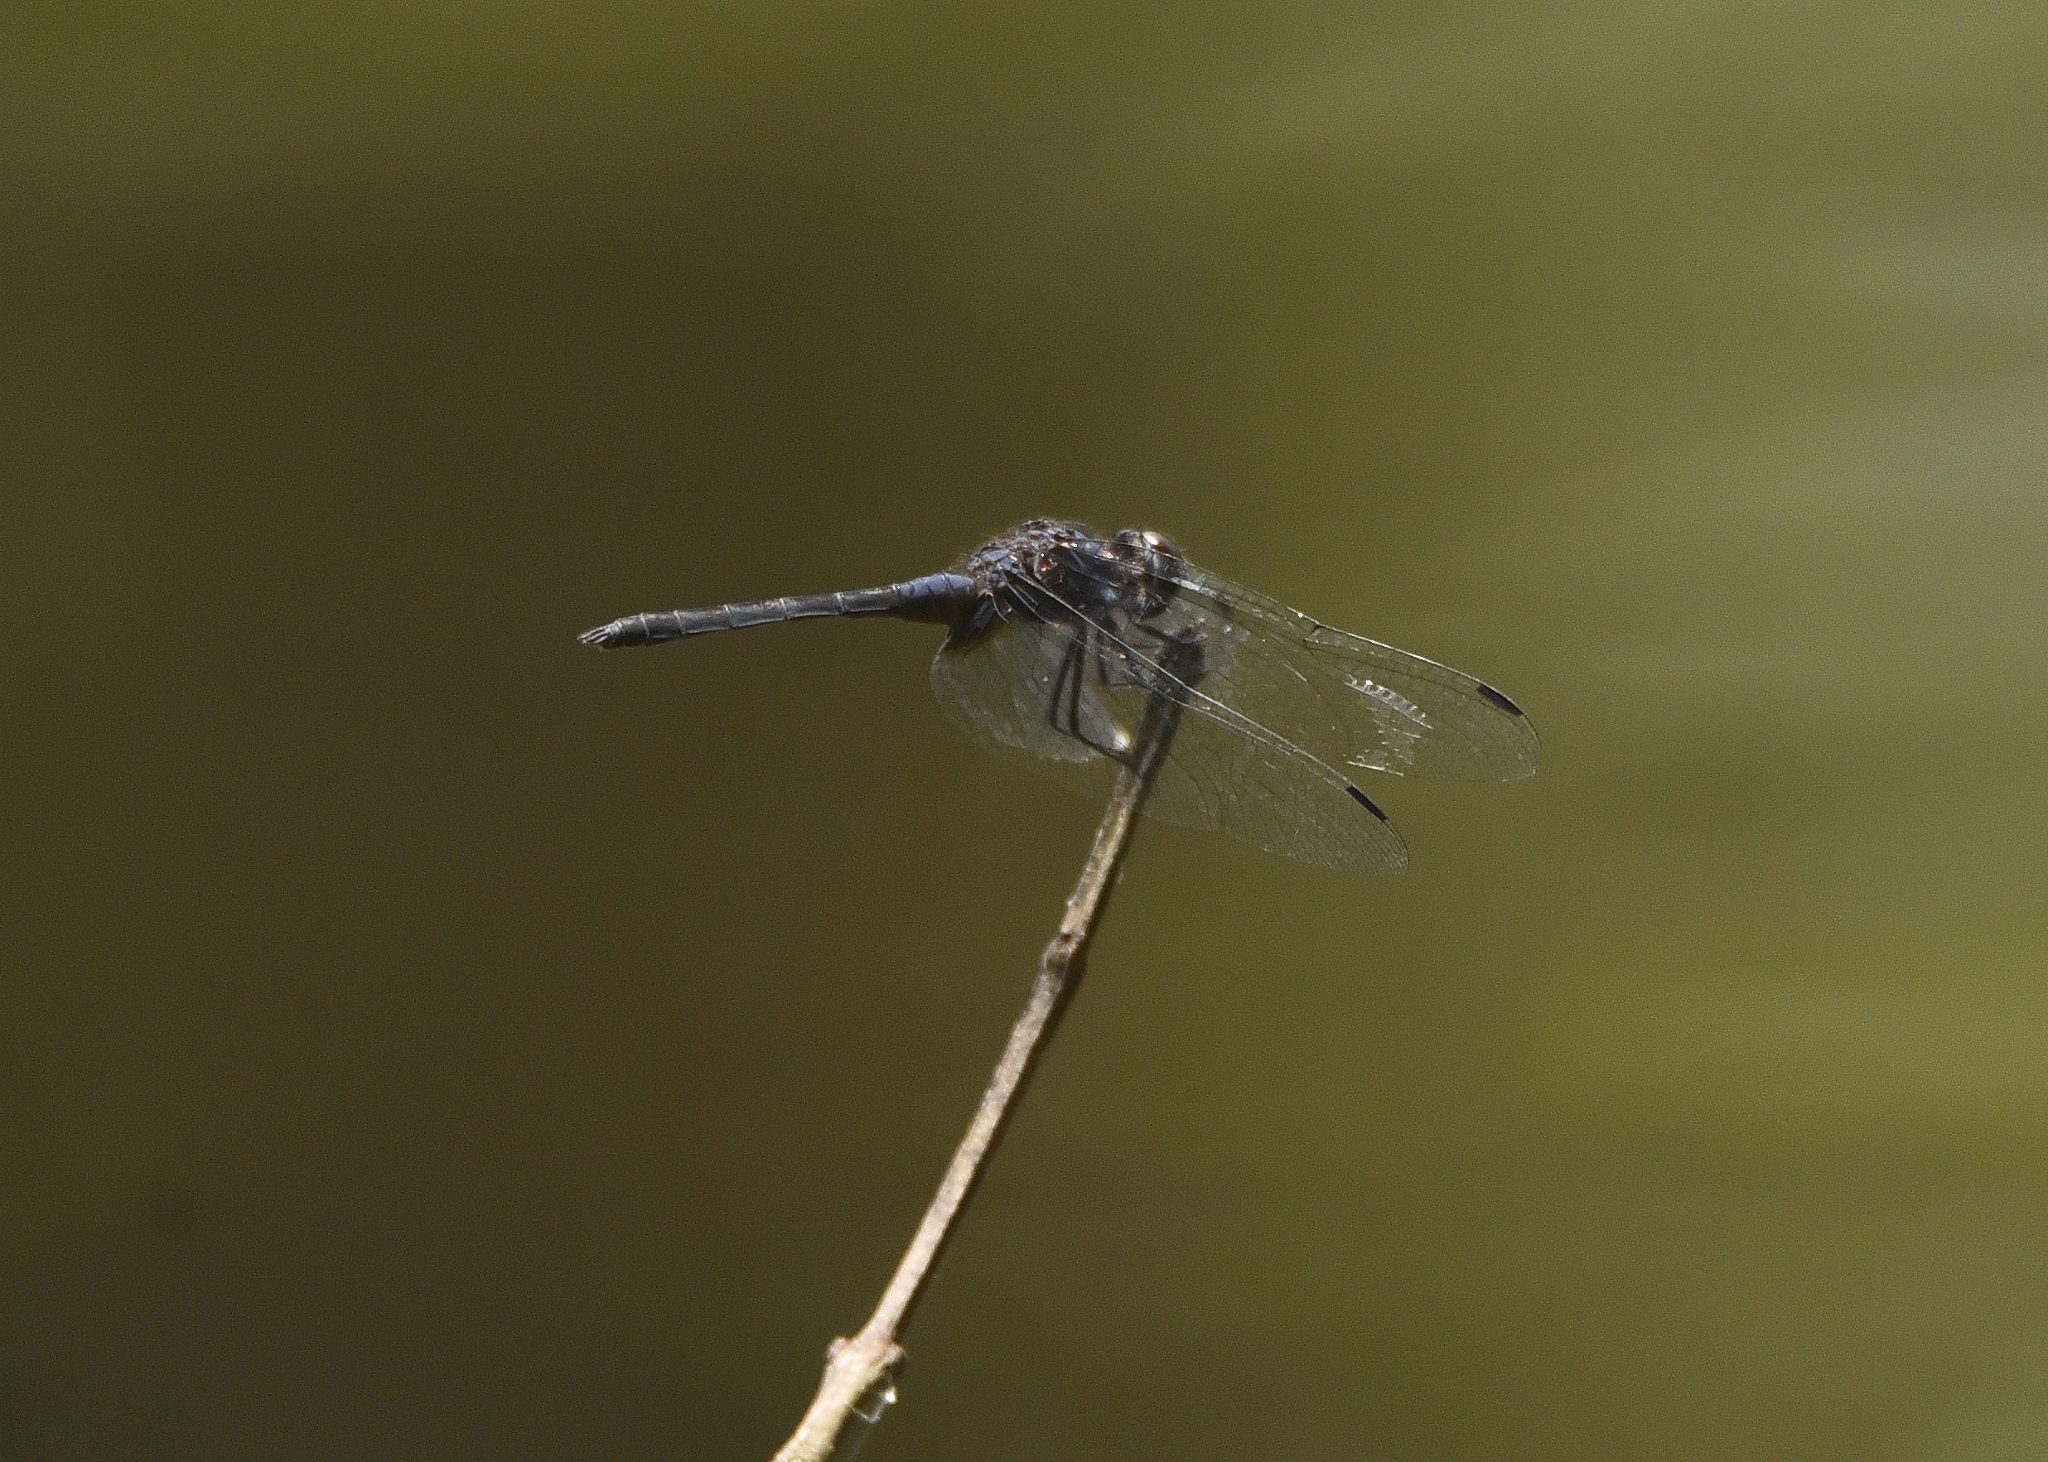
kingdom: Animalia
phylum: Arthropoda
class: Insecta
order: Odonata
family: Libellulidae
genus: Trithemis
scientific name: Trithemis festiva
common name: Indigo dropwing
